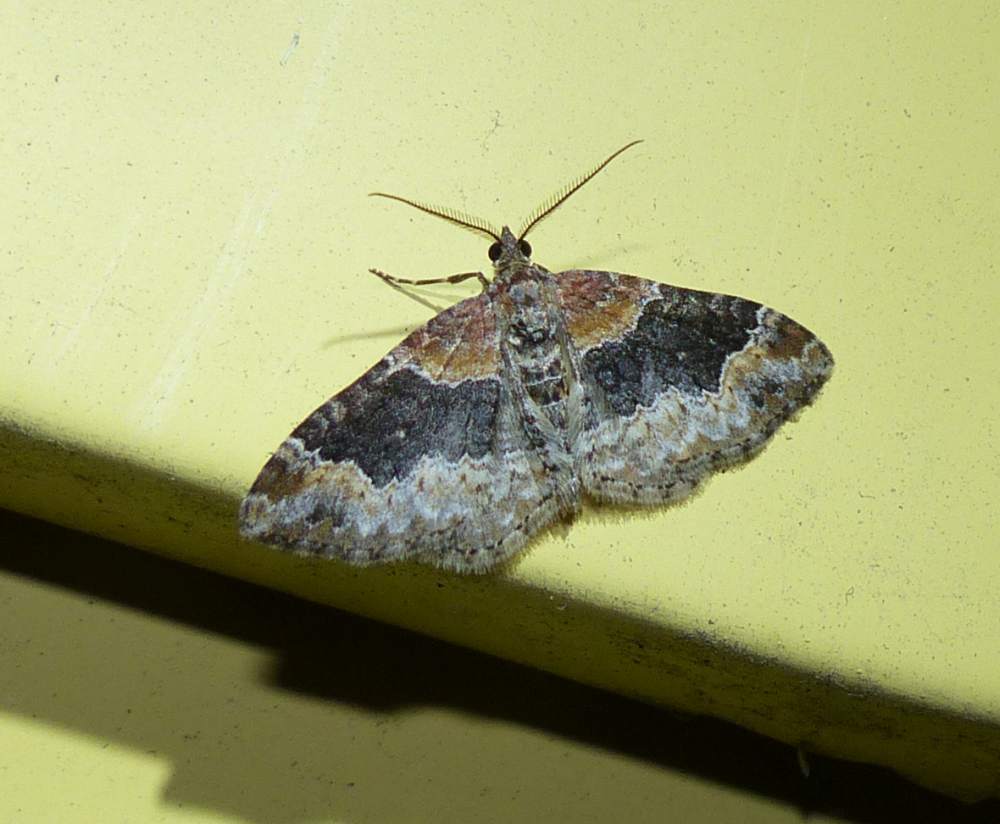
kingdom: Animalia
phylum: Arthropoda
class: Insecta
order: Lepidoptera
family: Geometridae
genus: Xanthorhoe
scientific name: Xanthorhoe ferrugata
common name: Dark-barred twin-spot carpet
